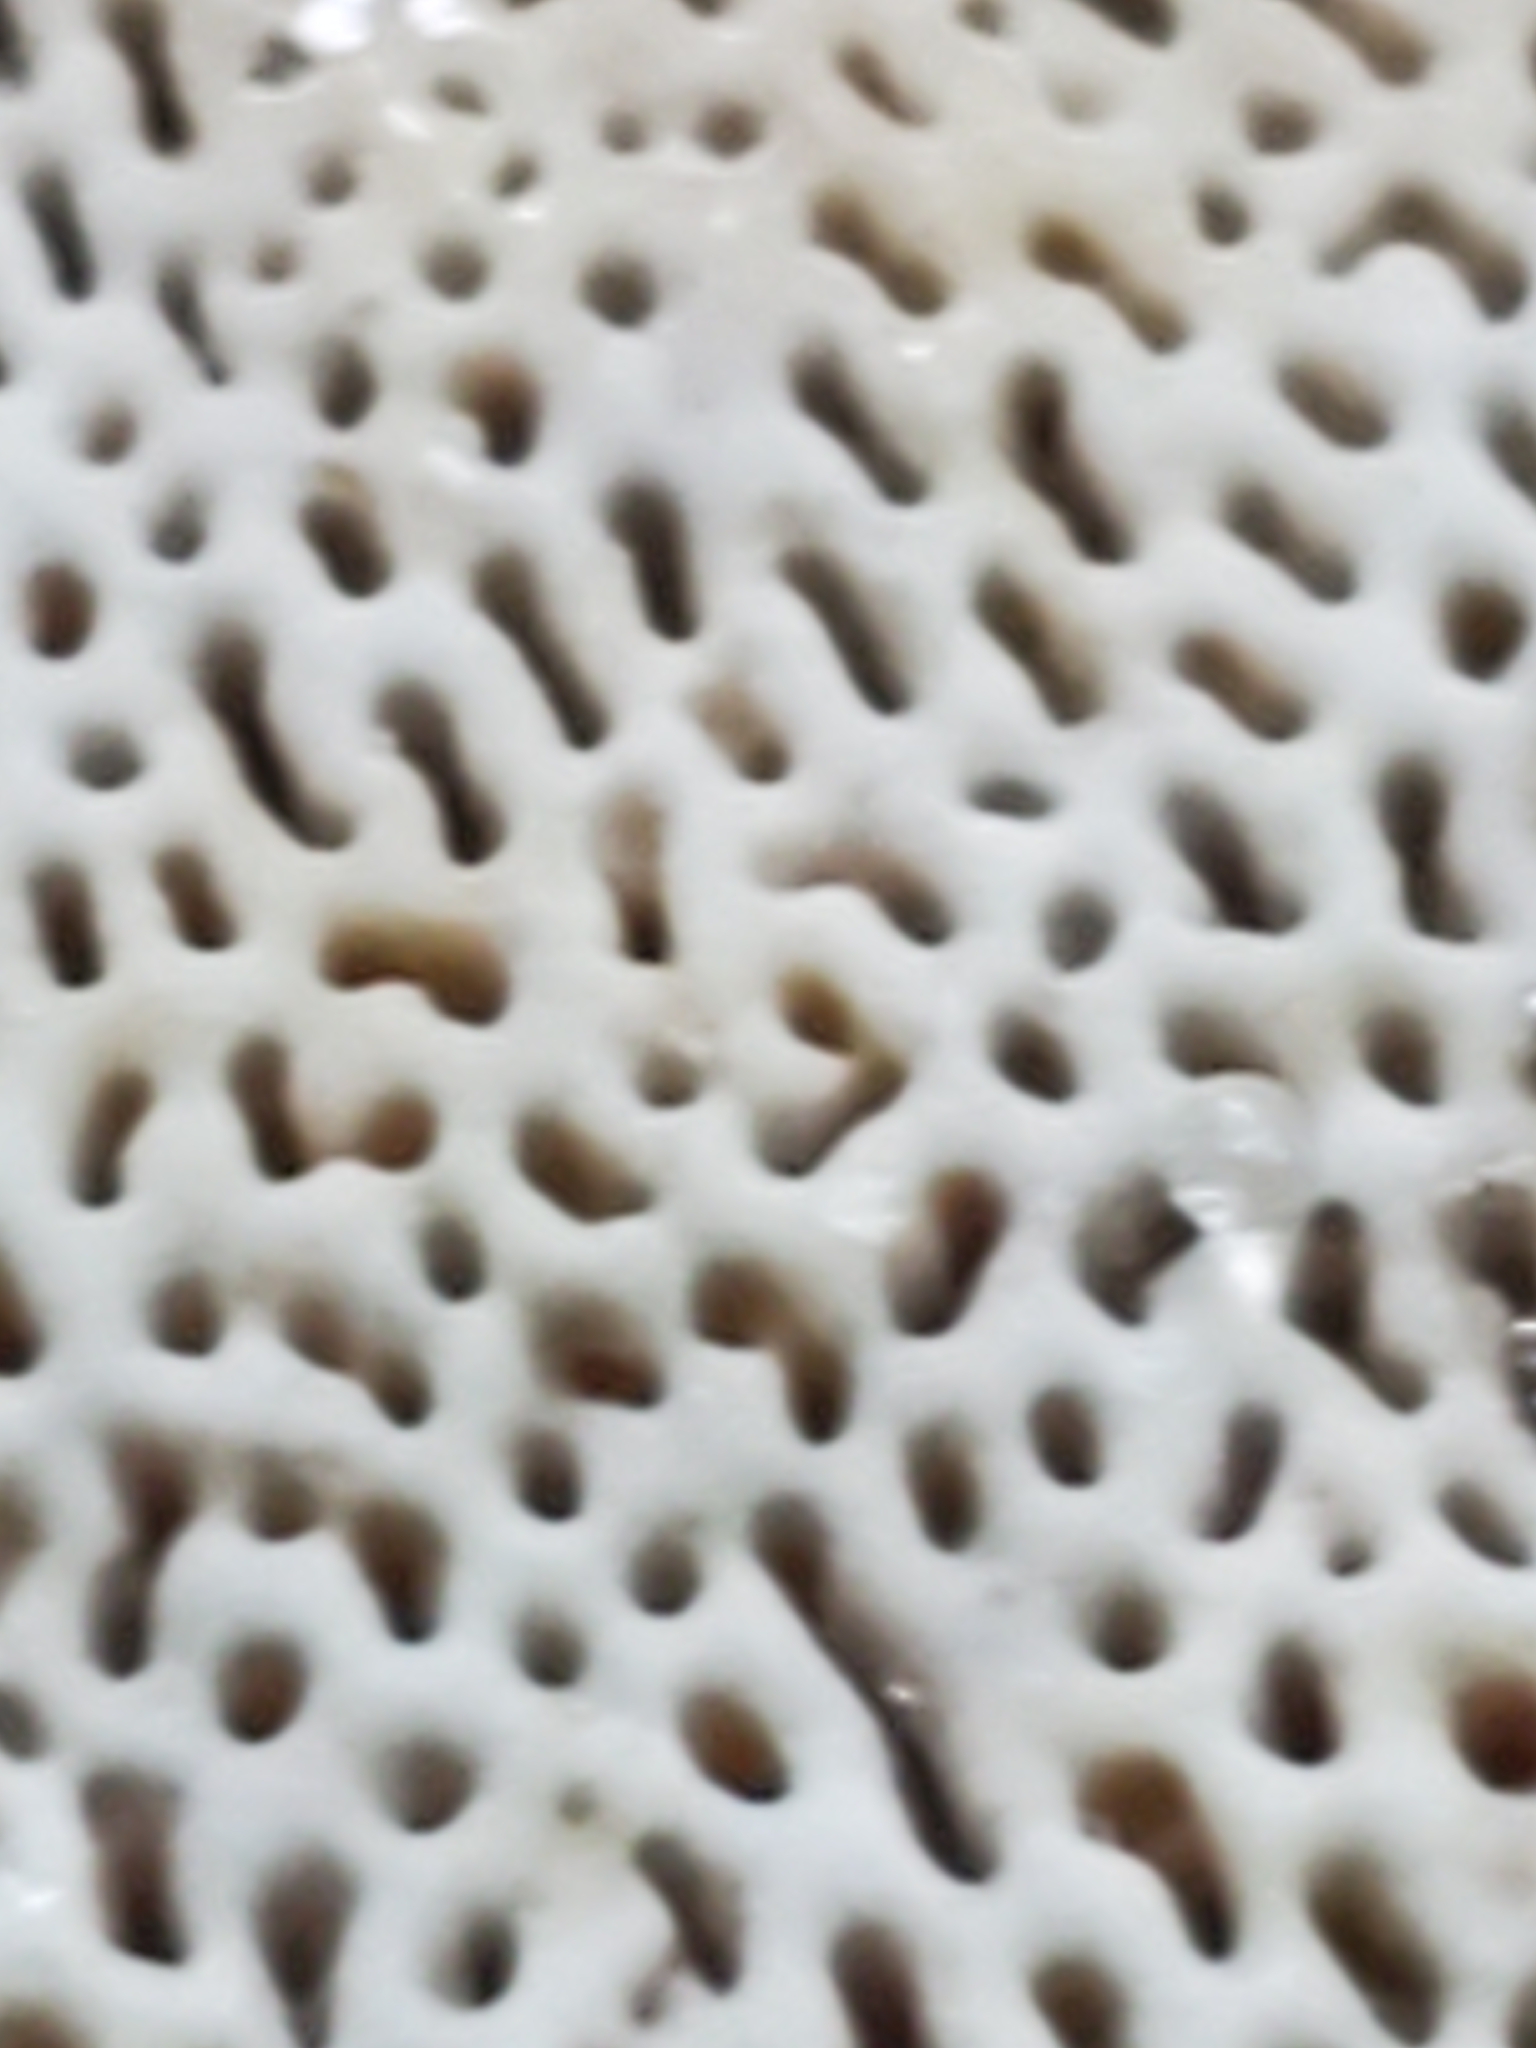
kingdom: Fungi
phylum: Basidiomycota
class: Agaricomycetes
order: Polyporales
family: Polyporaceae
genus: Daedaleopsis
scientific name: Daedaleopsis confragosa
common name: Blushing bracket
